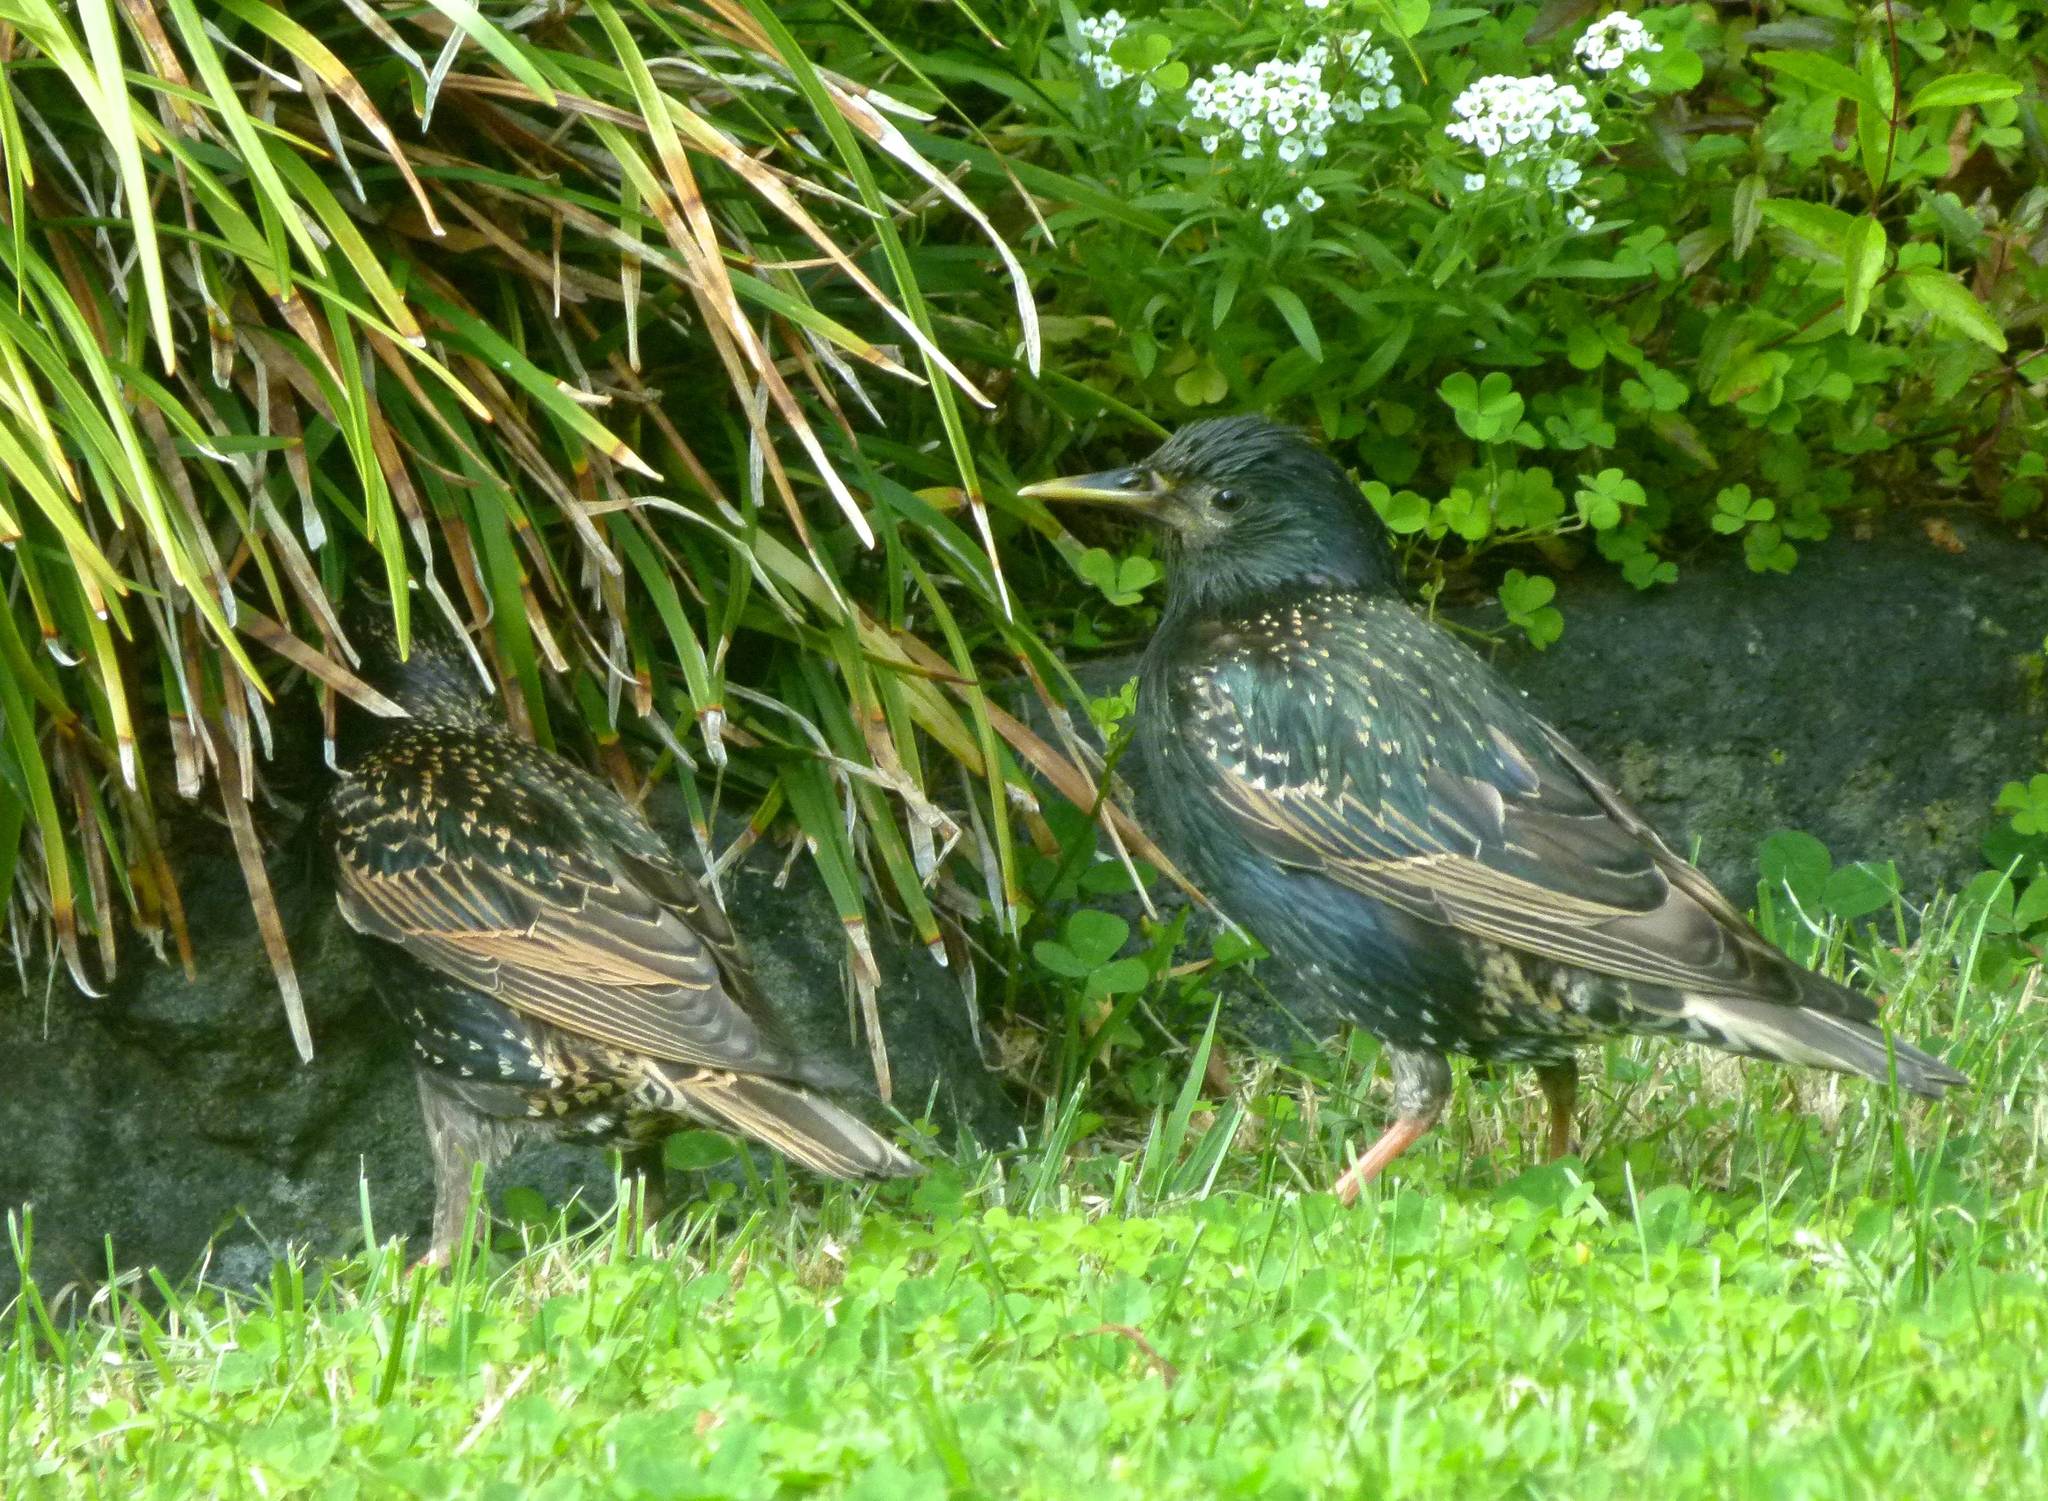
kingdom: Animalia
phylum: Chordata
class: Aves
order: Passeriformes
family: Sturnidae
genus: Sturnus
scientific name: Sturnus vulgaris
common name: Common starling
